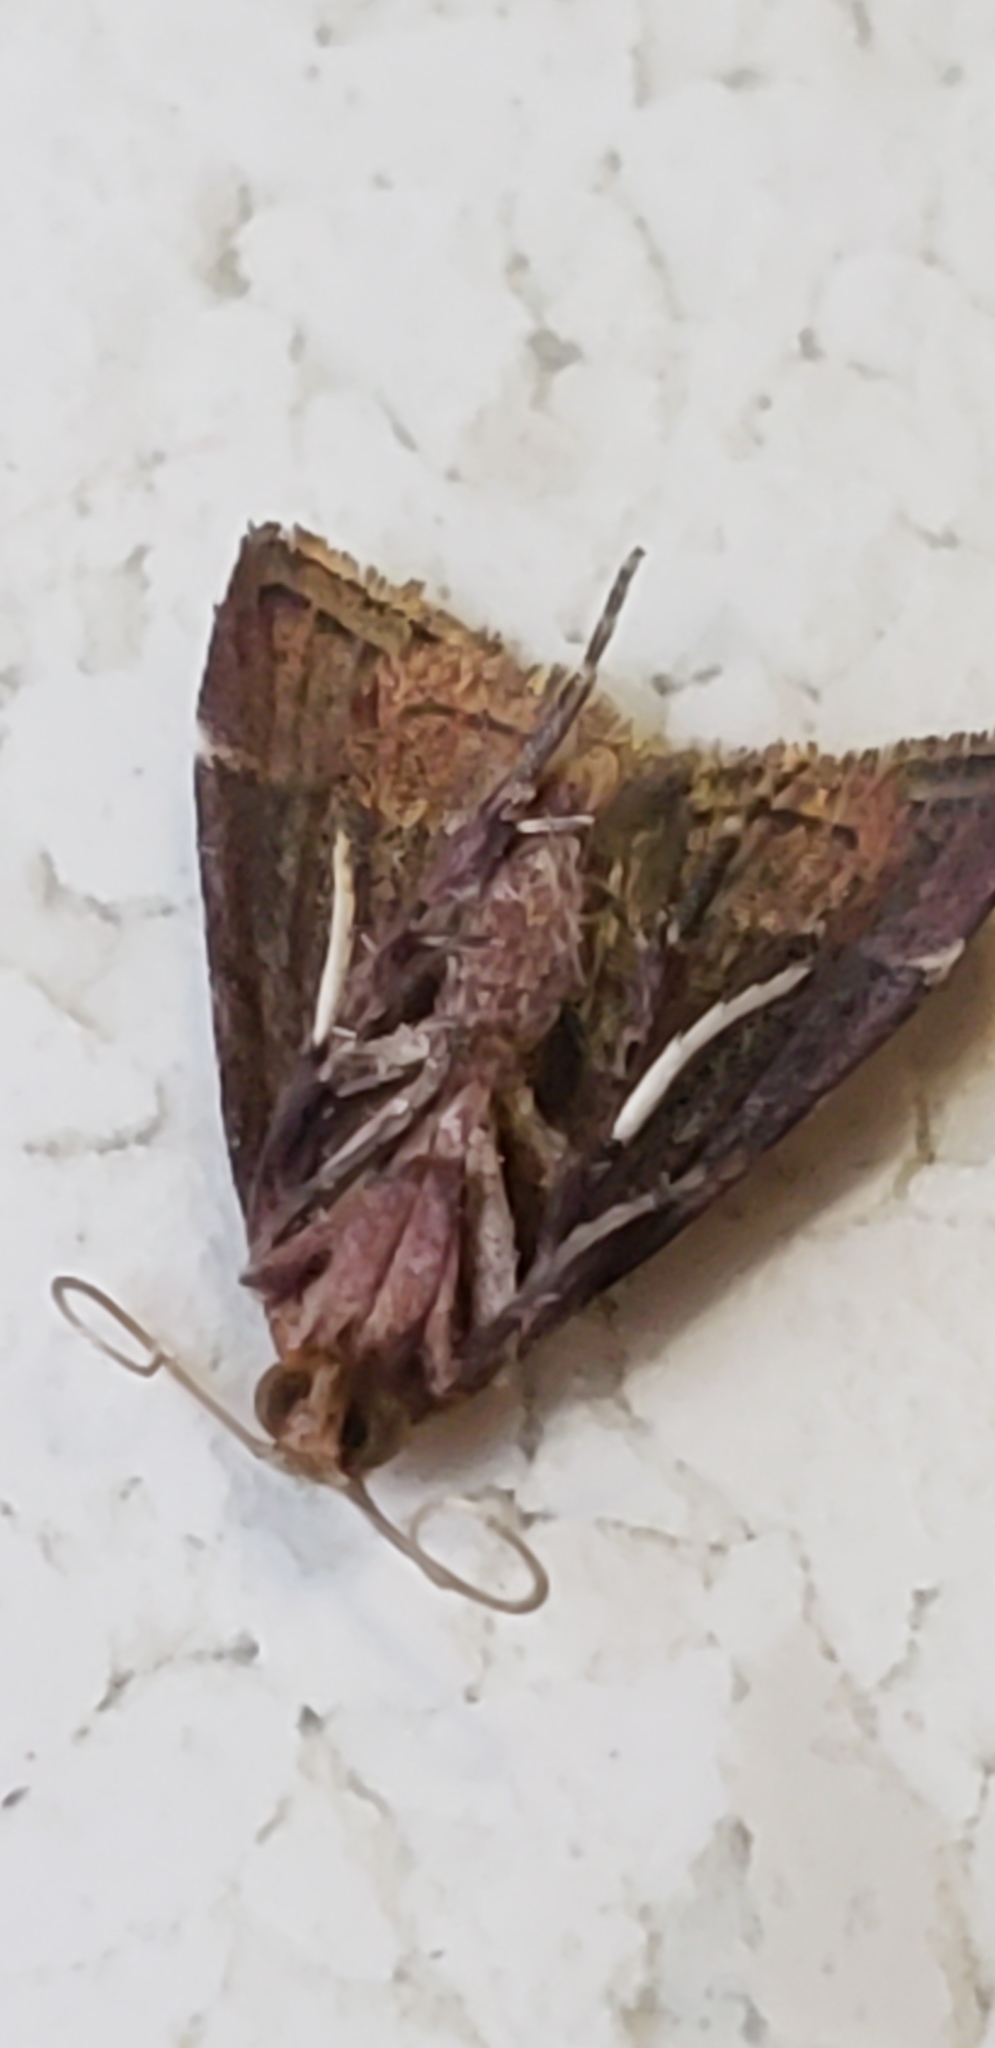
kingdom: Animalia
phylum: Arthropoda
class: Insecta
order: Lepidoptera
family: Pyralidae
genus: Arta
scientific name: Arta statalis
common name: Posturing arta moth
